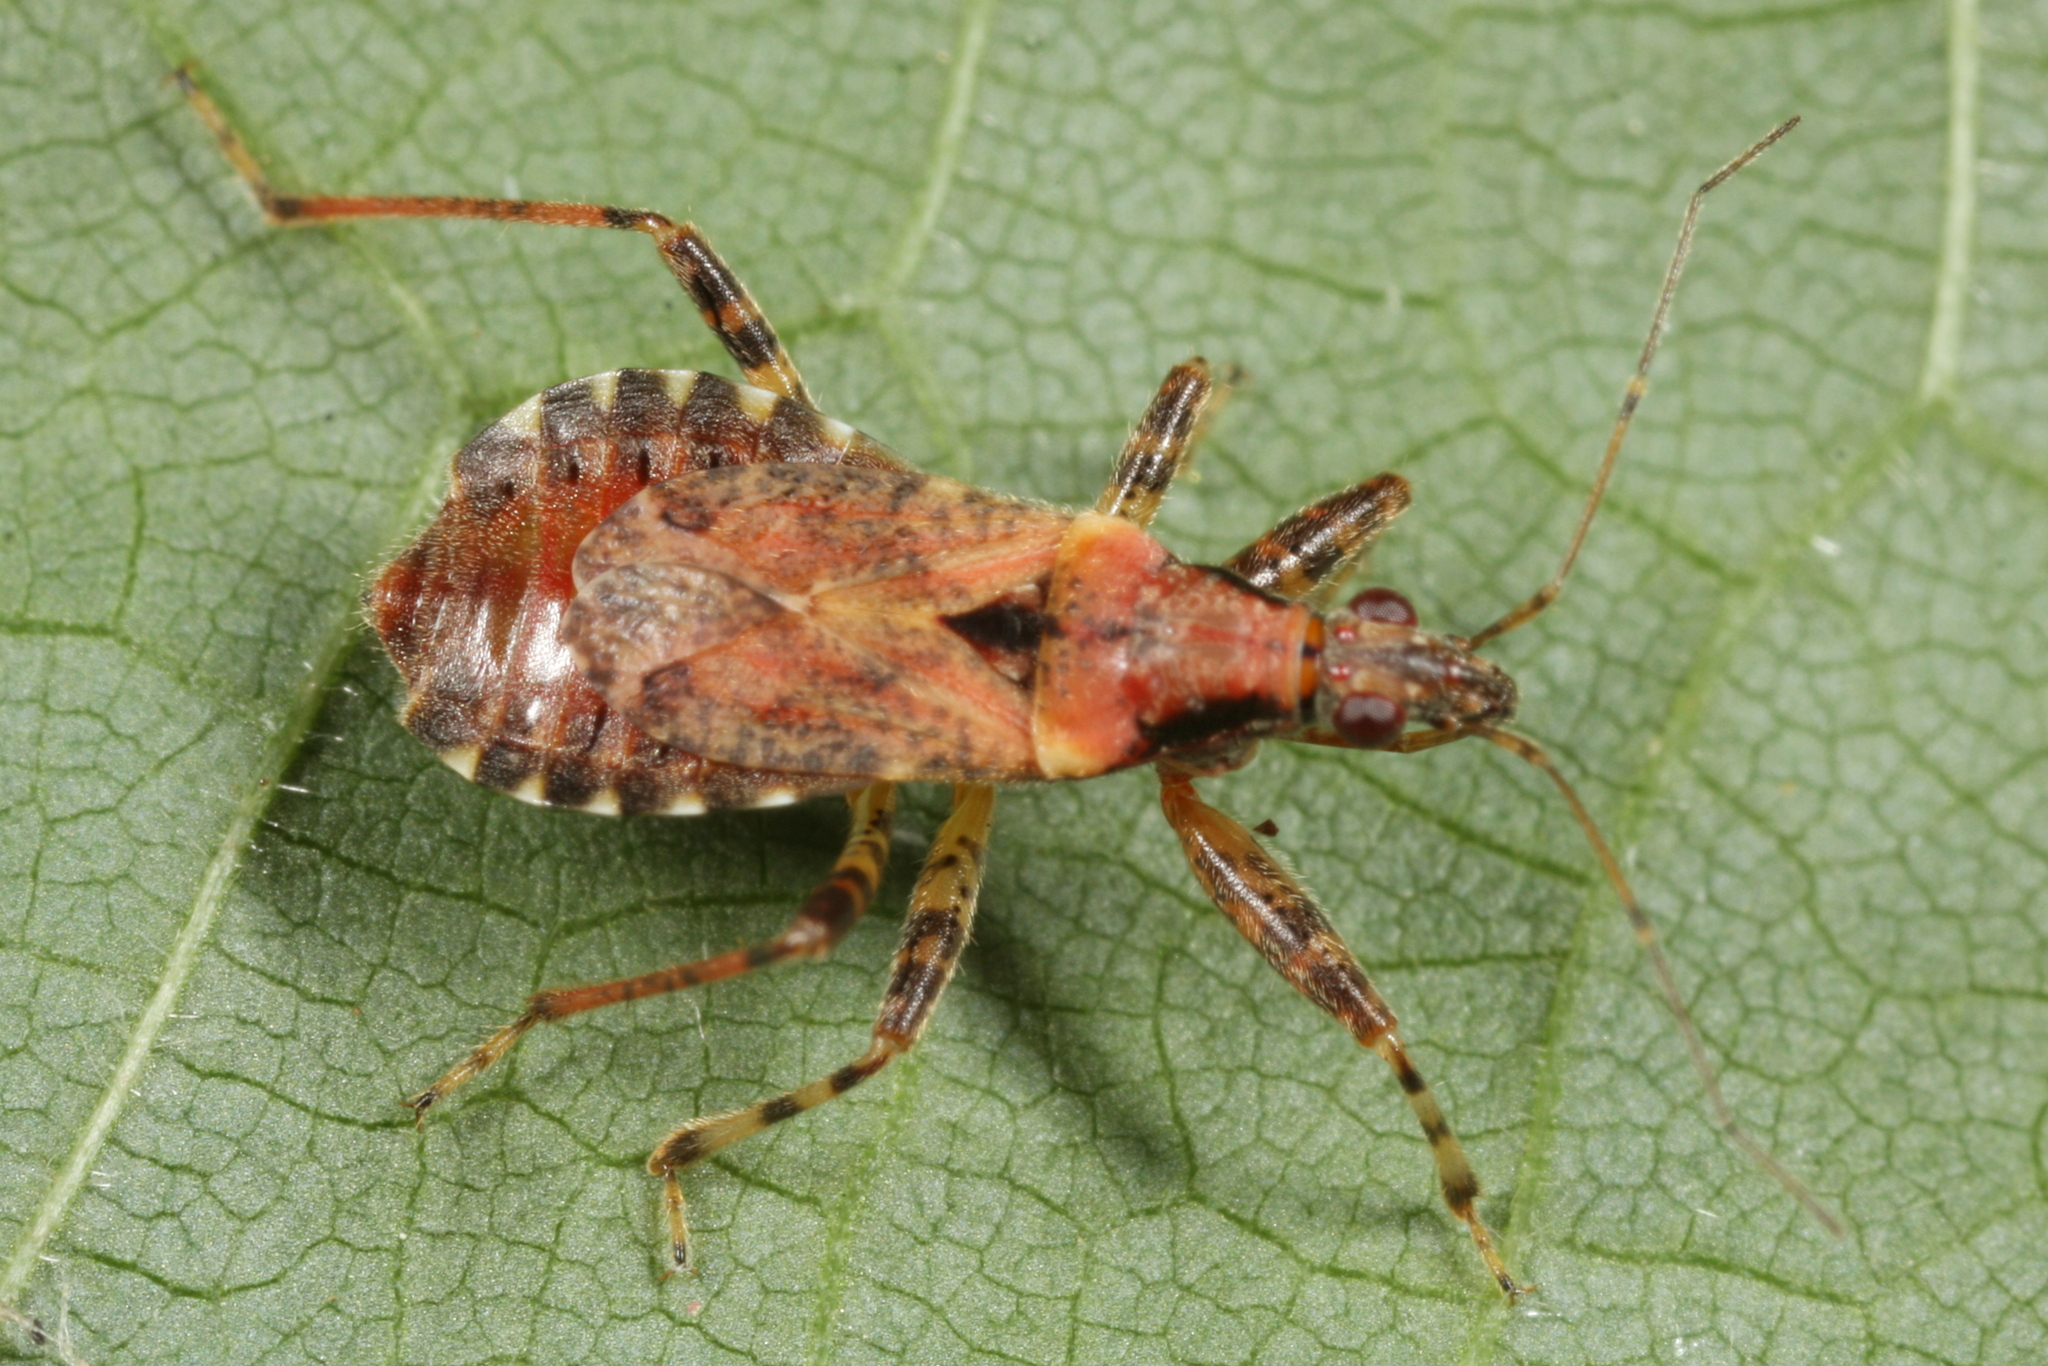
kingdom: Animalia
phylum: Arthropoda
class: Insecta
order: Hemiptera
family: Nabidae
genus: Himacerus
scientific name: Himacerus mirmicoides
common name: Ant damsel bug
